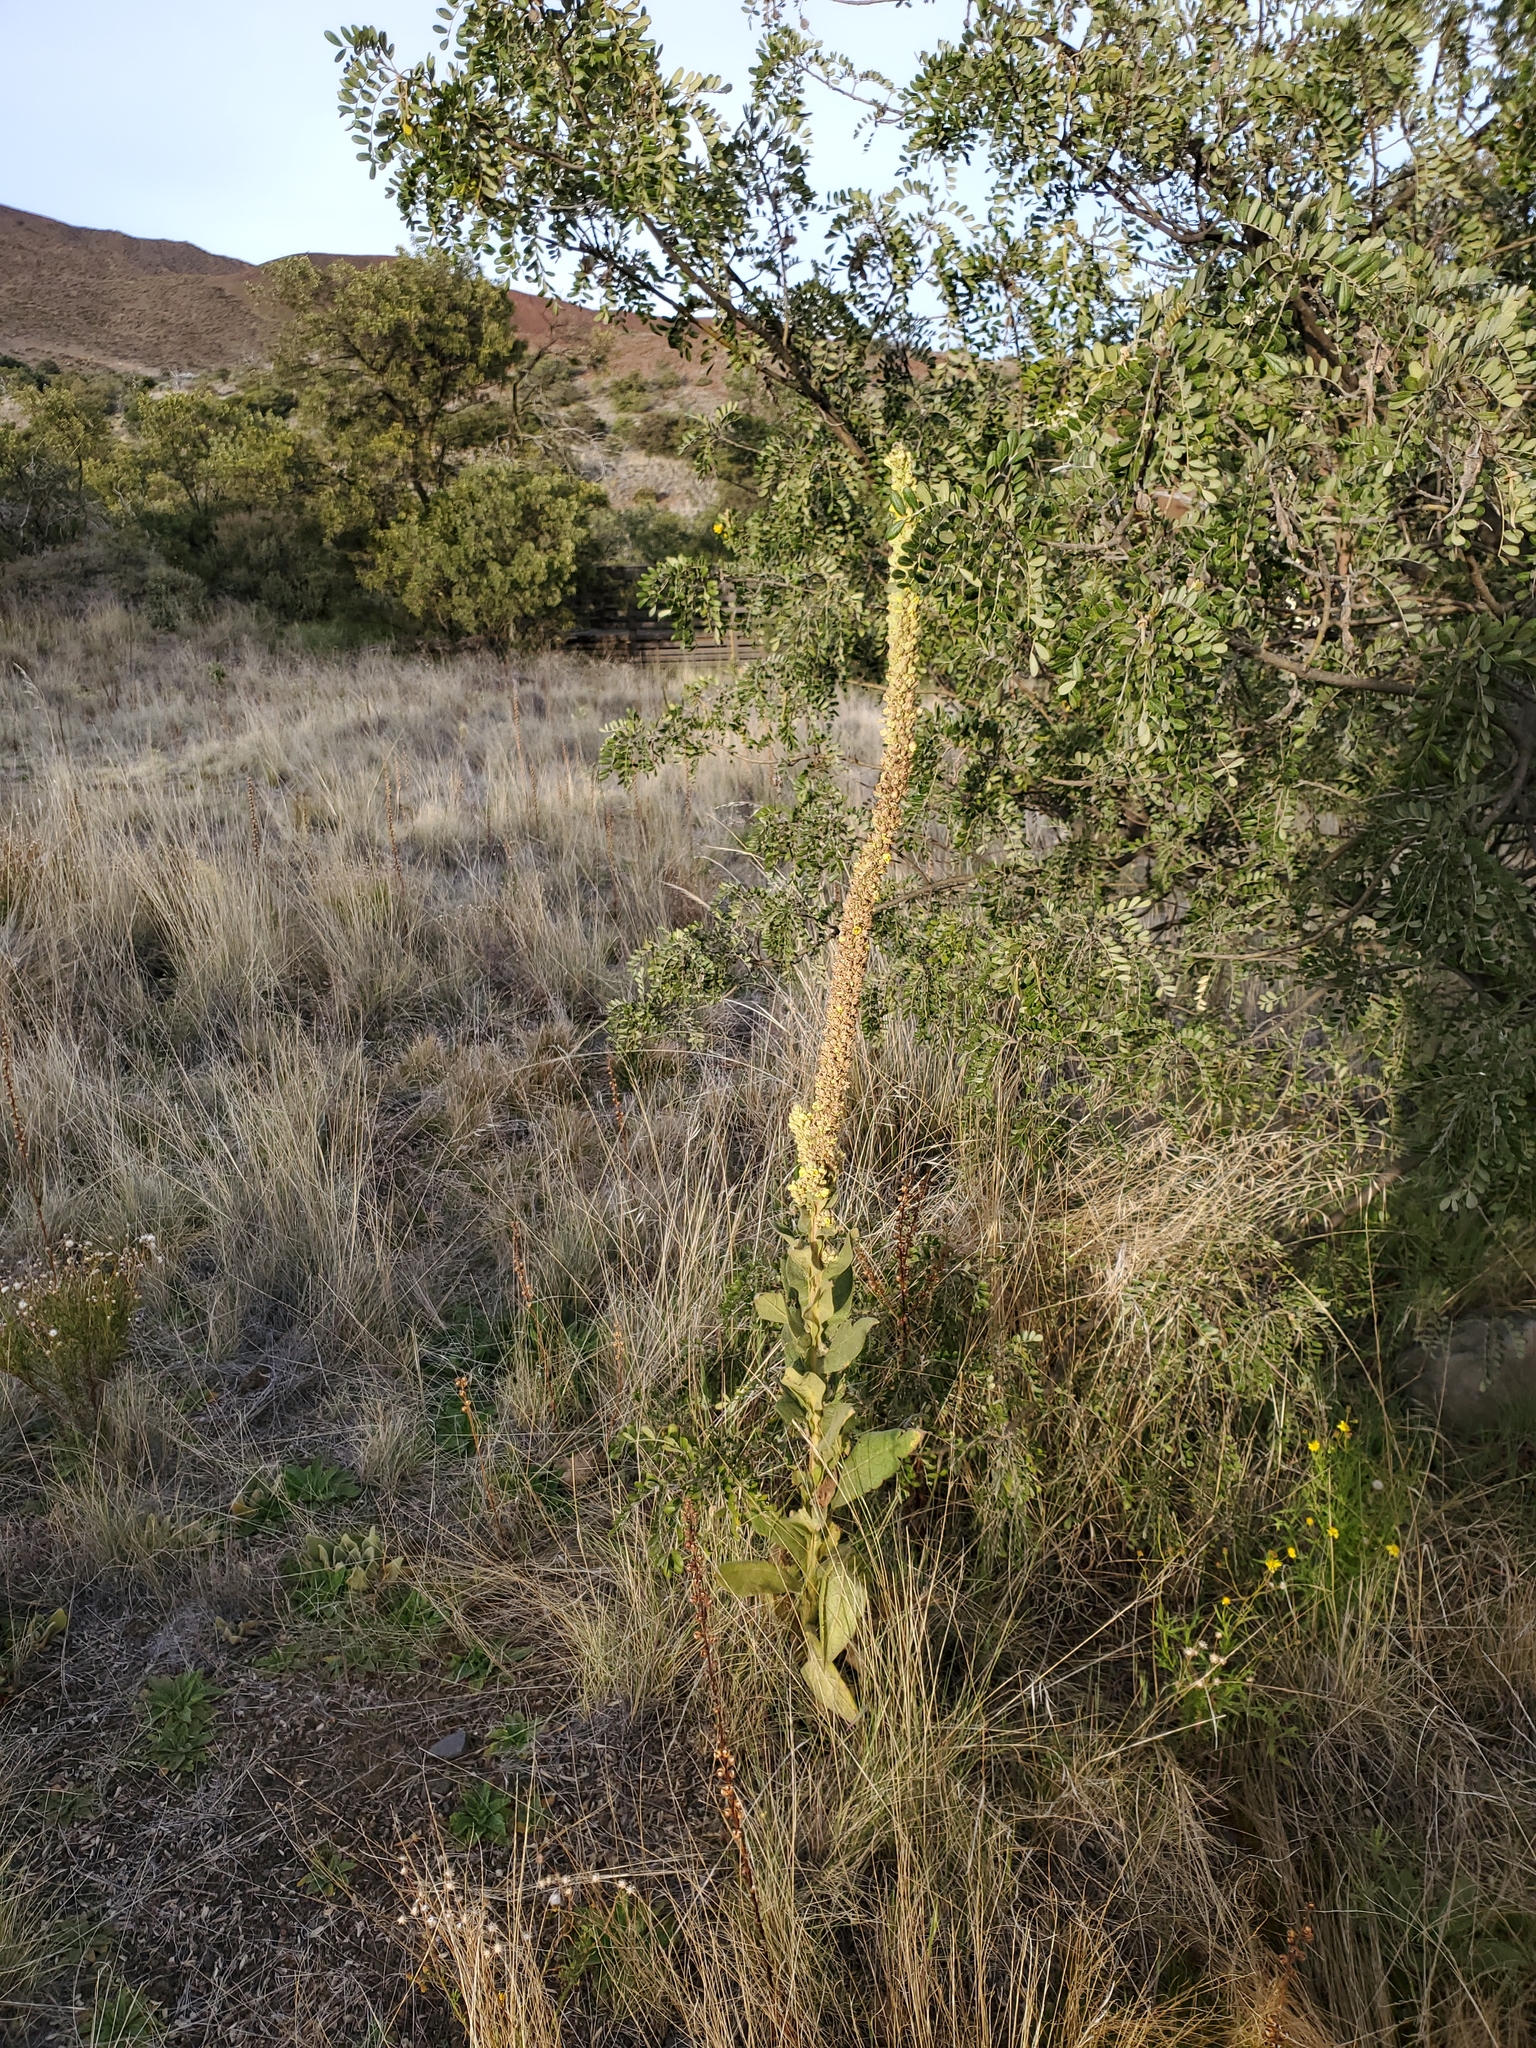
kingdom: Plantae
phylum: Tracheophyta
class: Magnoliopsida
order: Lamiales
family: Scrophulariaceae
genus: Verbascum
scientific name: Verbascum thapsus
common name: Common mullein
